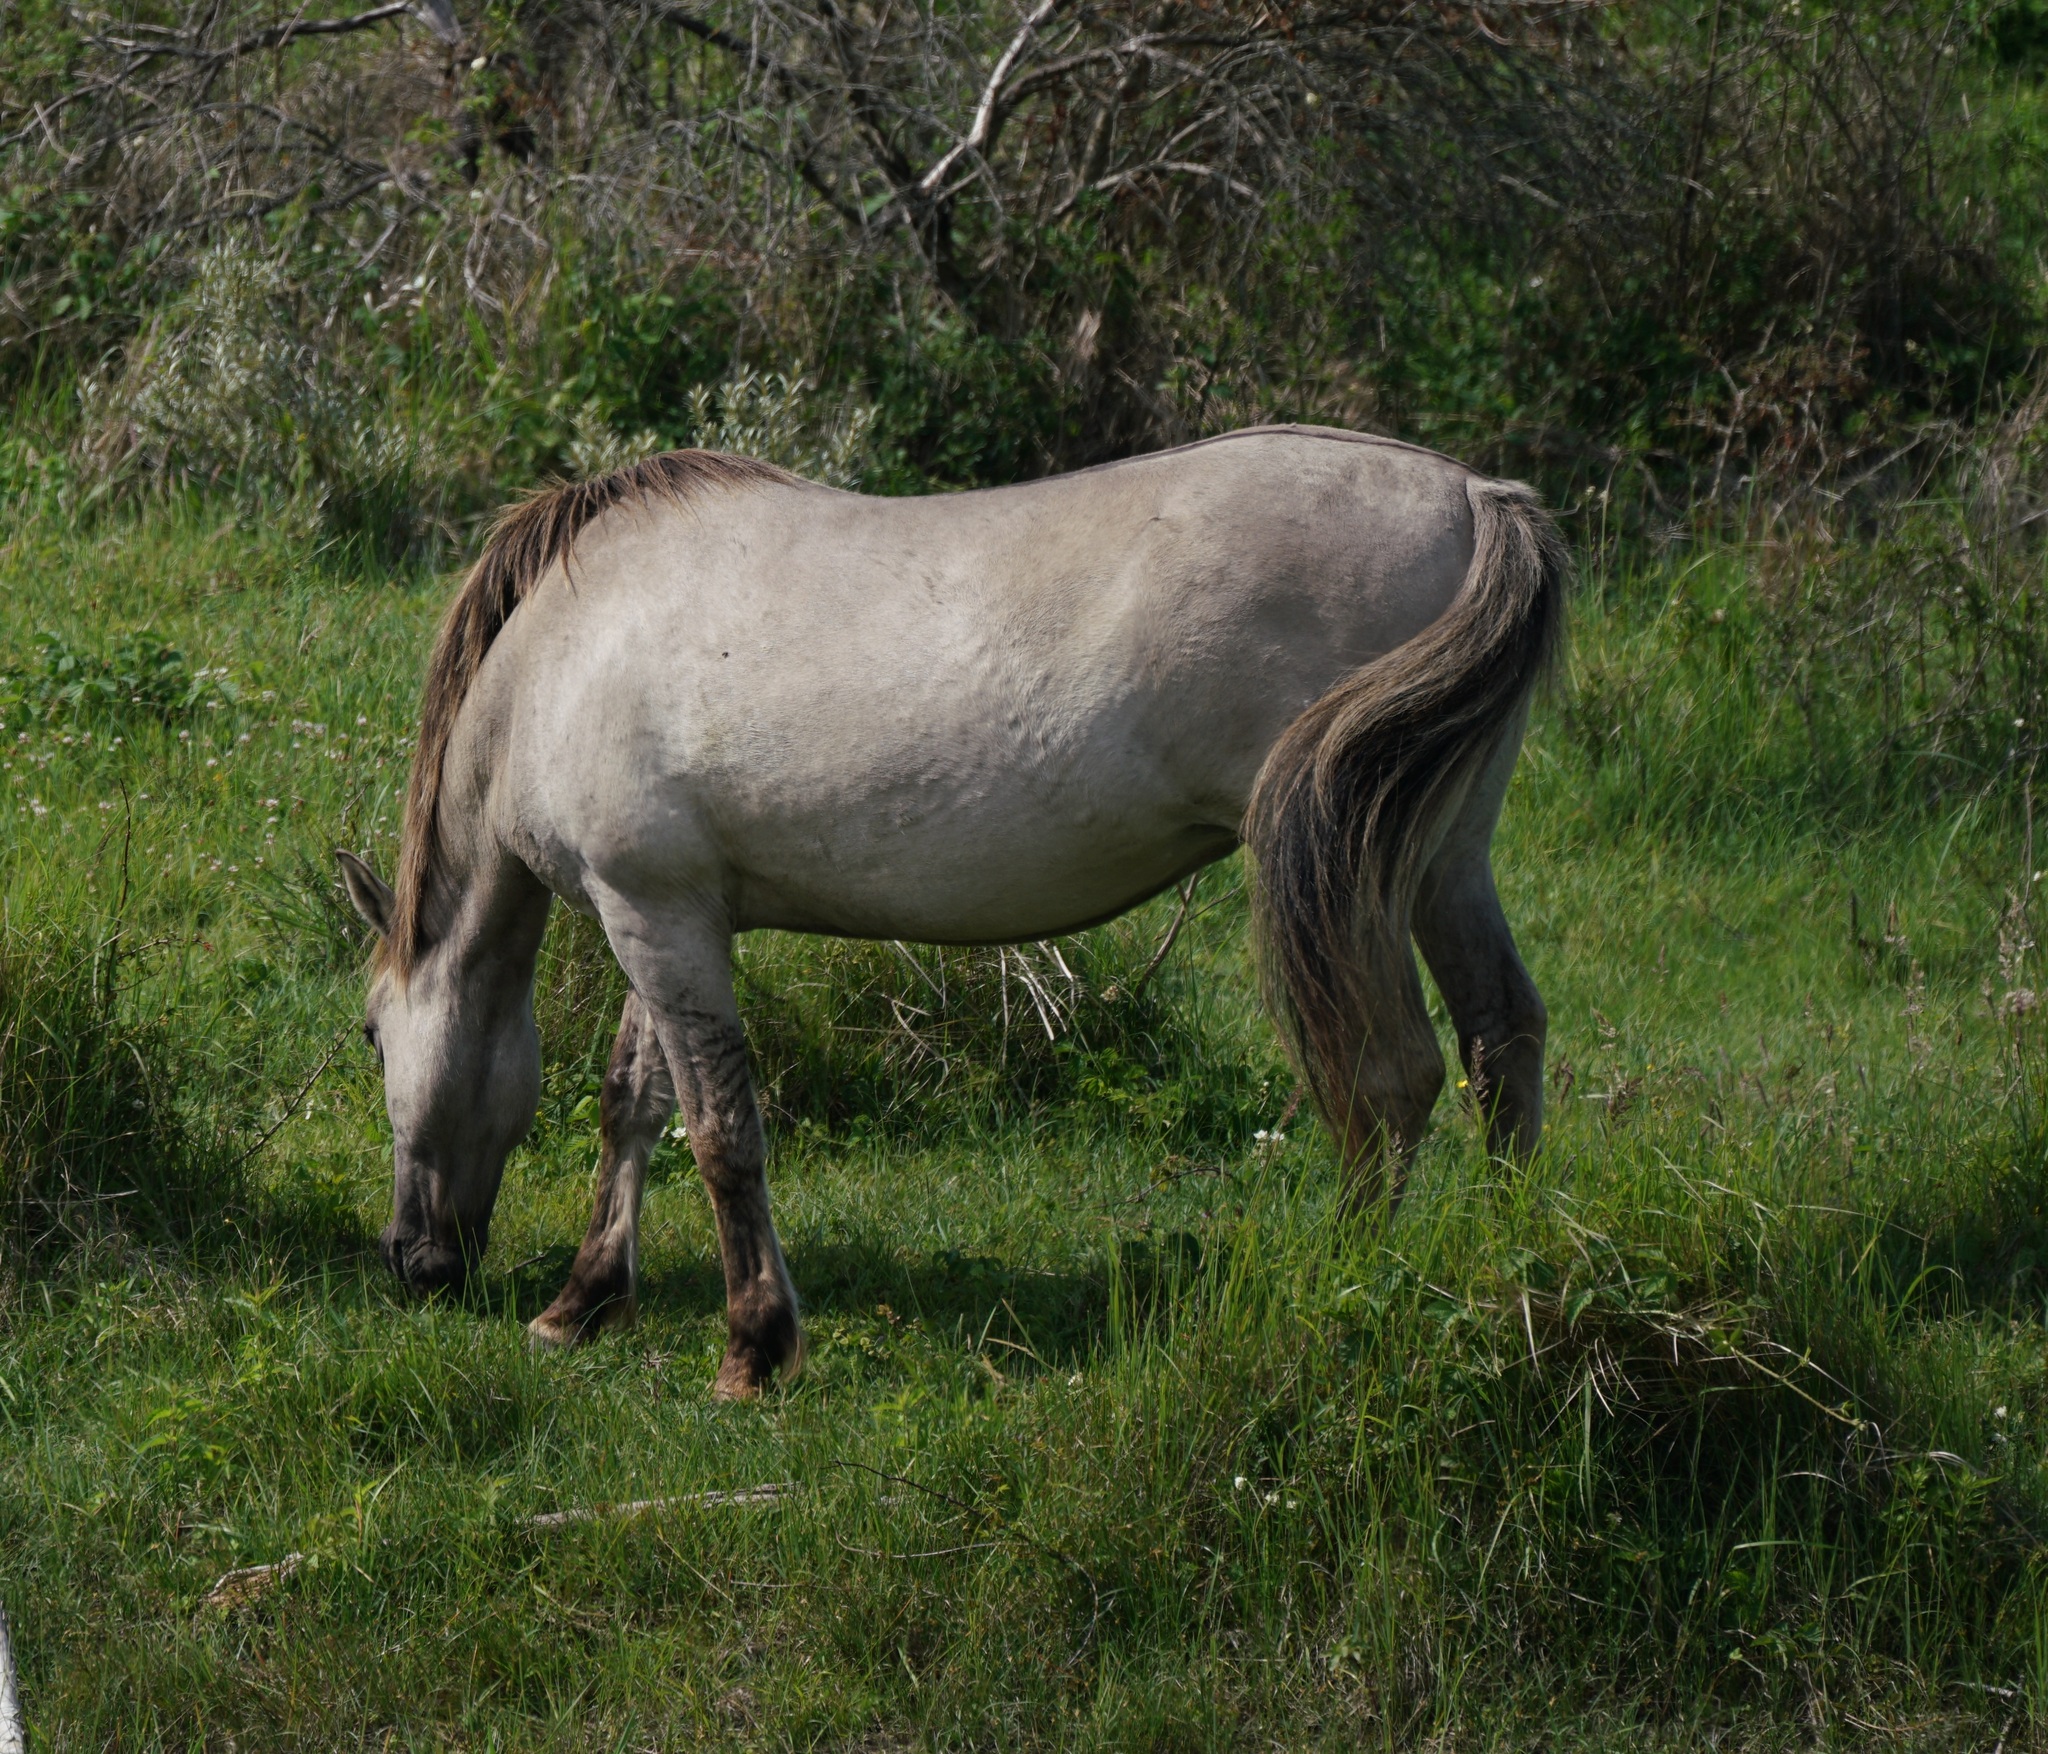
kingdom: Animalia
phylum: Chordata
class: Mammalia
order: Perissodactyla
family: Equidae
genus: Equus
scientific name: Equus caballus
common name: Horse
